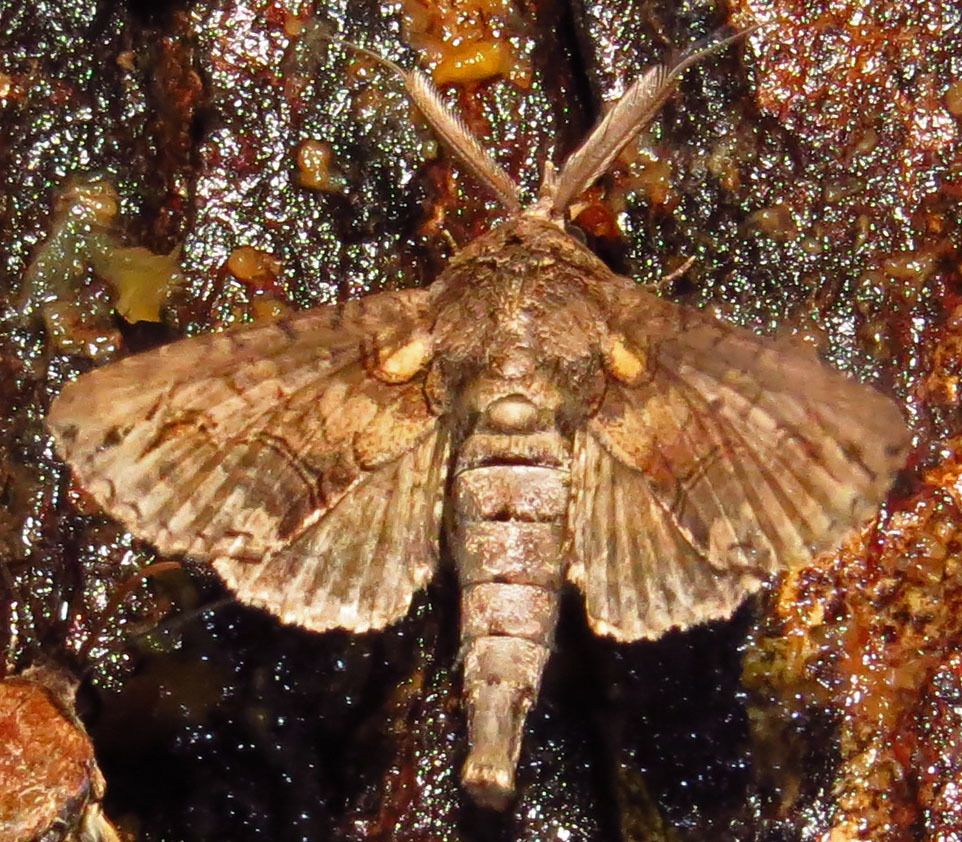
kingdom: Animalia
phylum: Arthropoda
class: Insecta
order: Lepidoptera
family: Euteliidae
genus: Paectes
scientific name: Paectes abrostoloides
